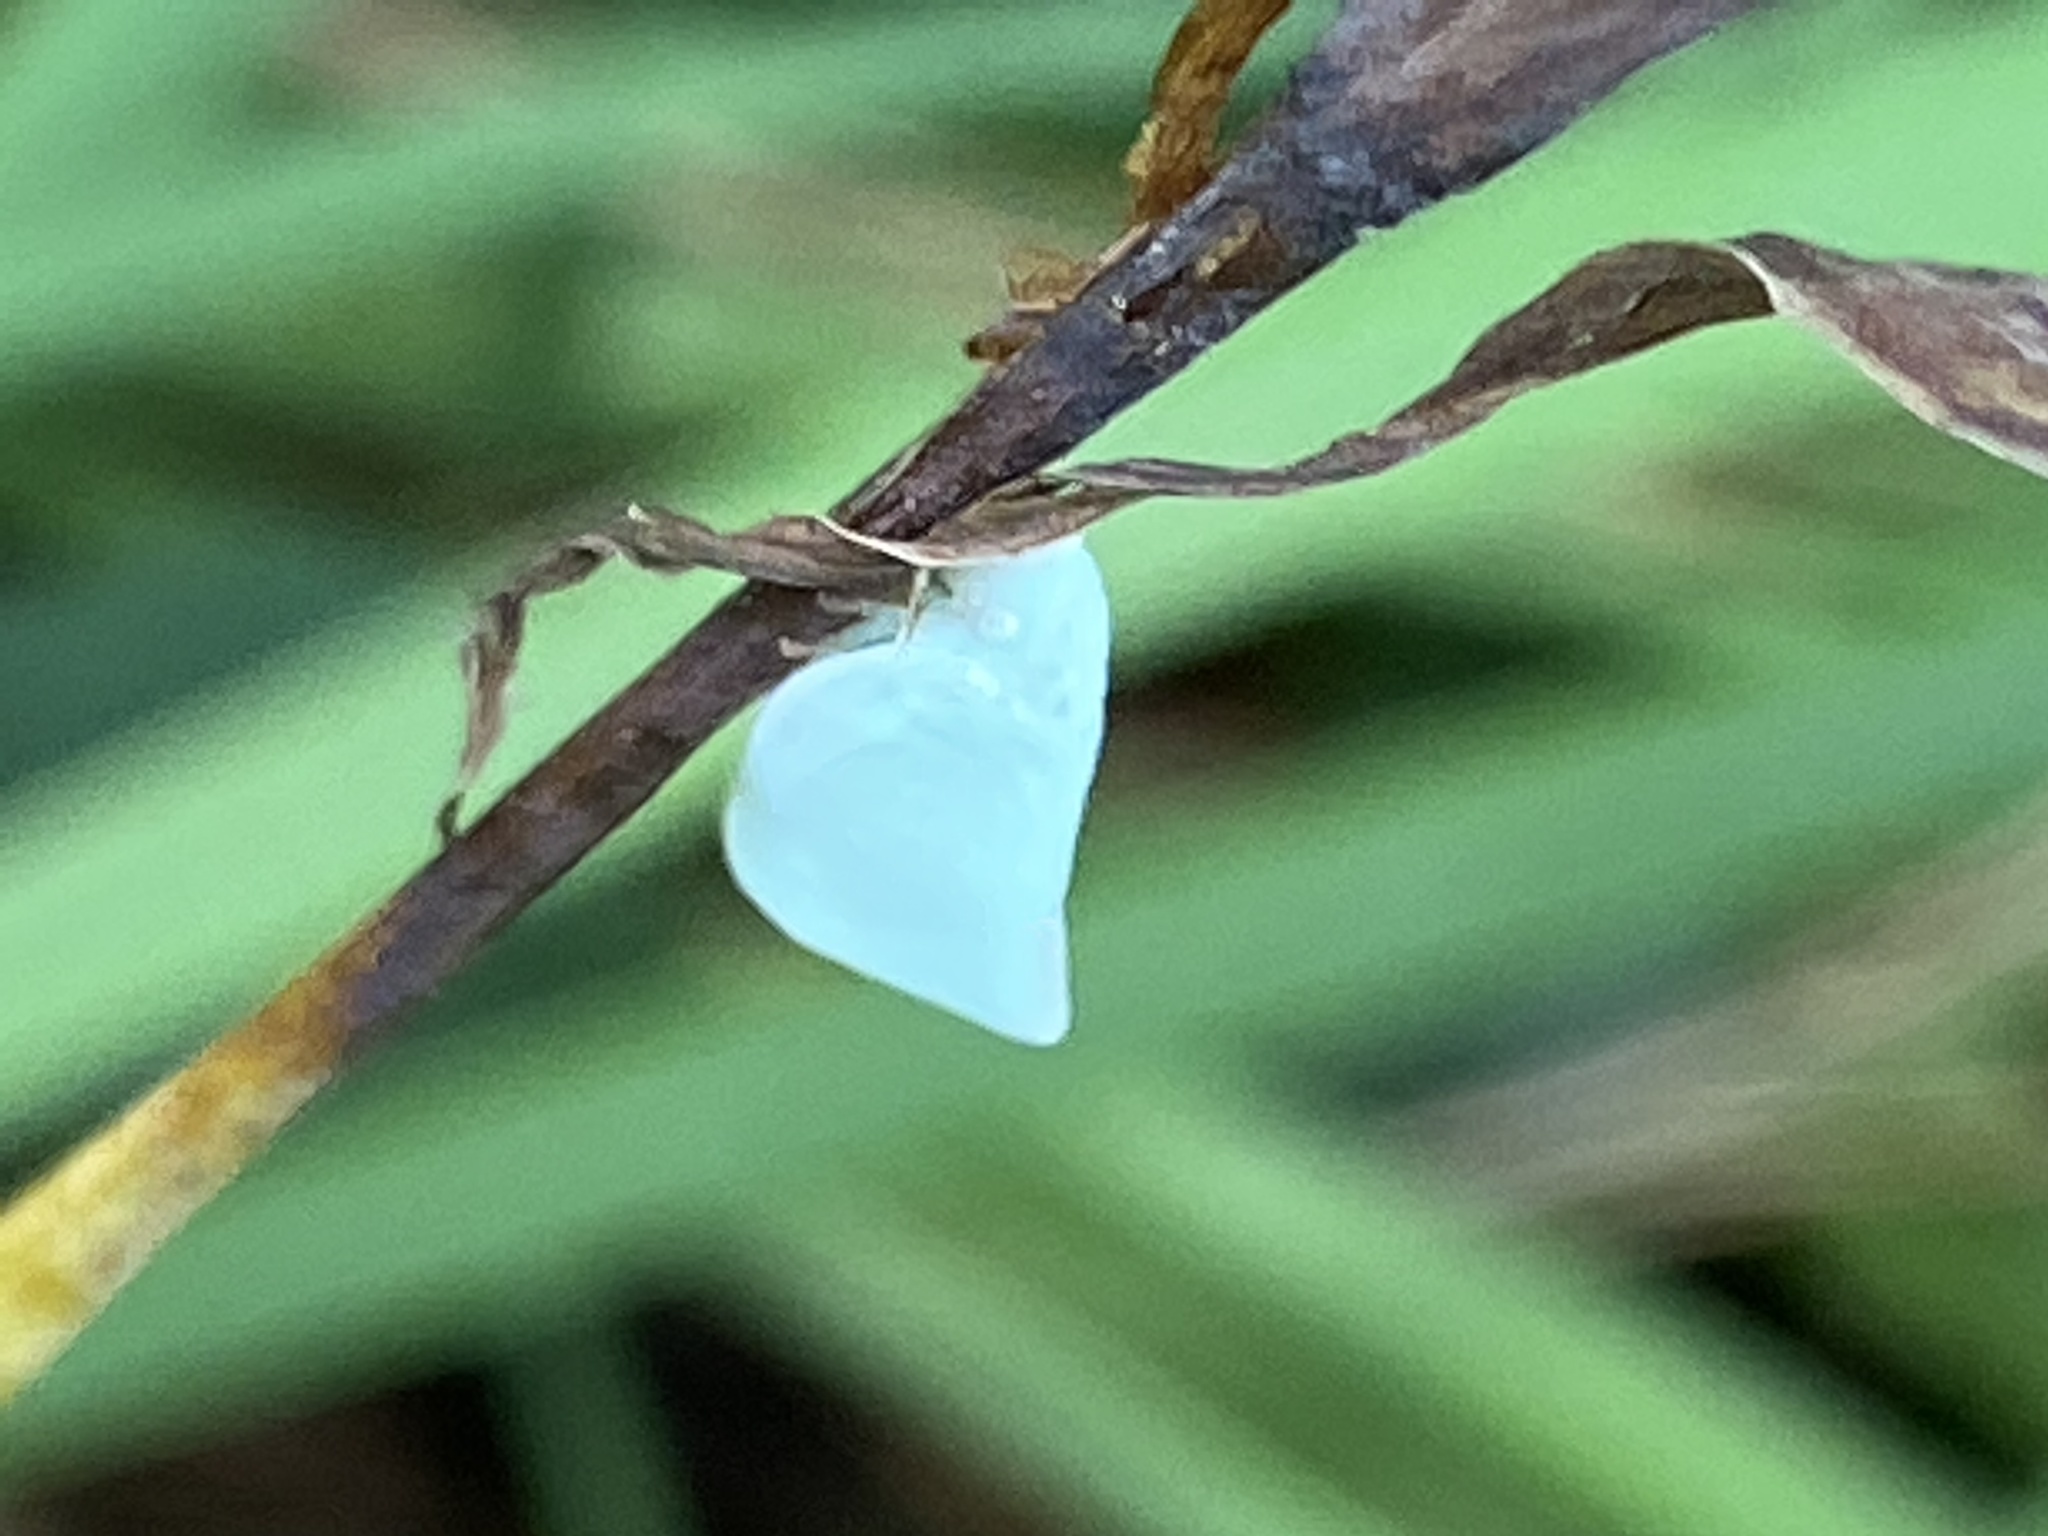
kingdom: Animalia
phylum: Arthropoda
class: Insecta
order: Hemiptera
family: Flatidae
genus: Flatormenis
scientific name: Flatormenis proxima
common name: Northern flatid planthopper
